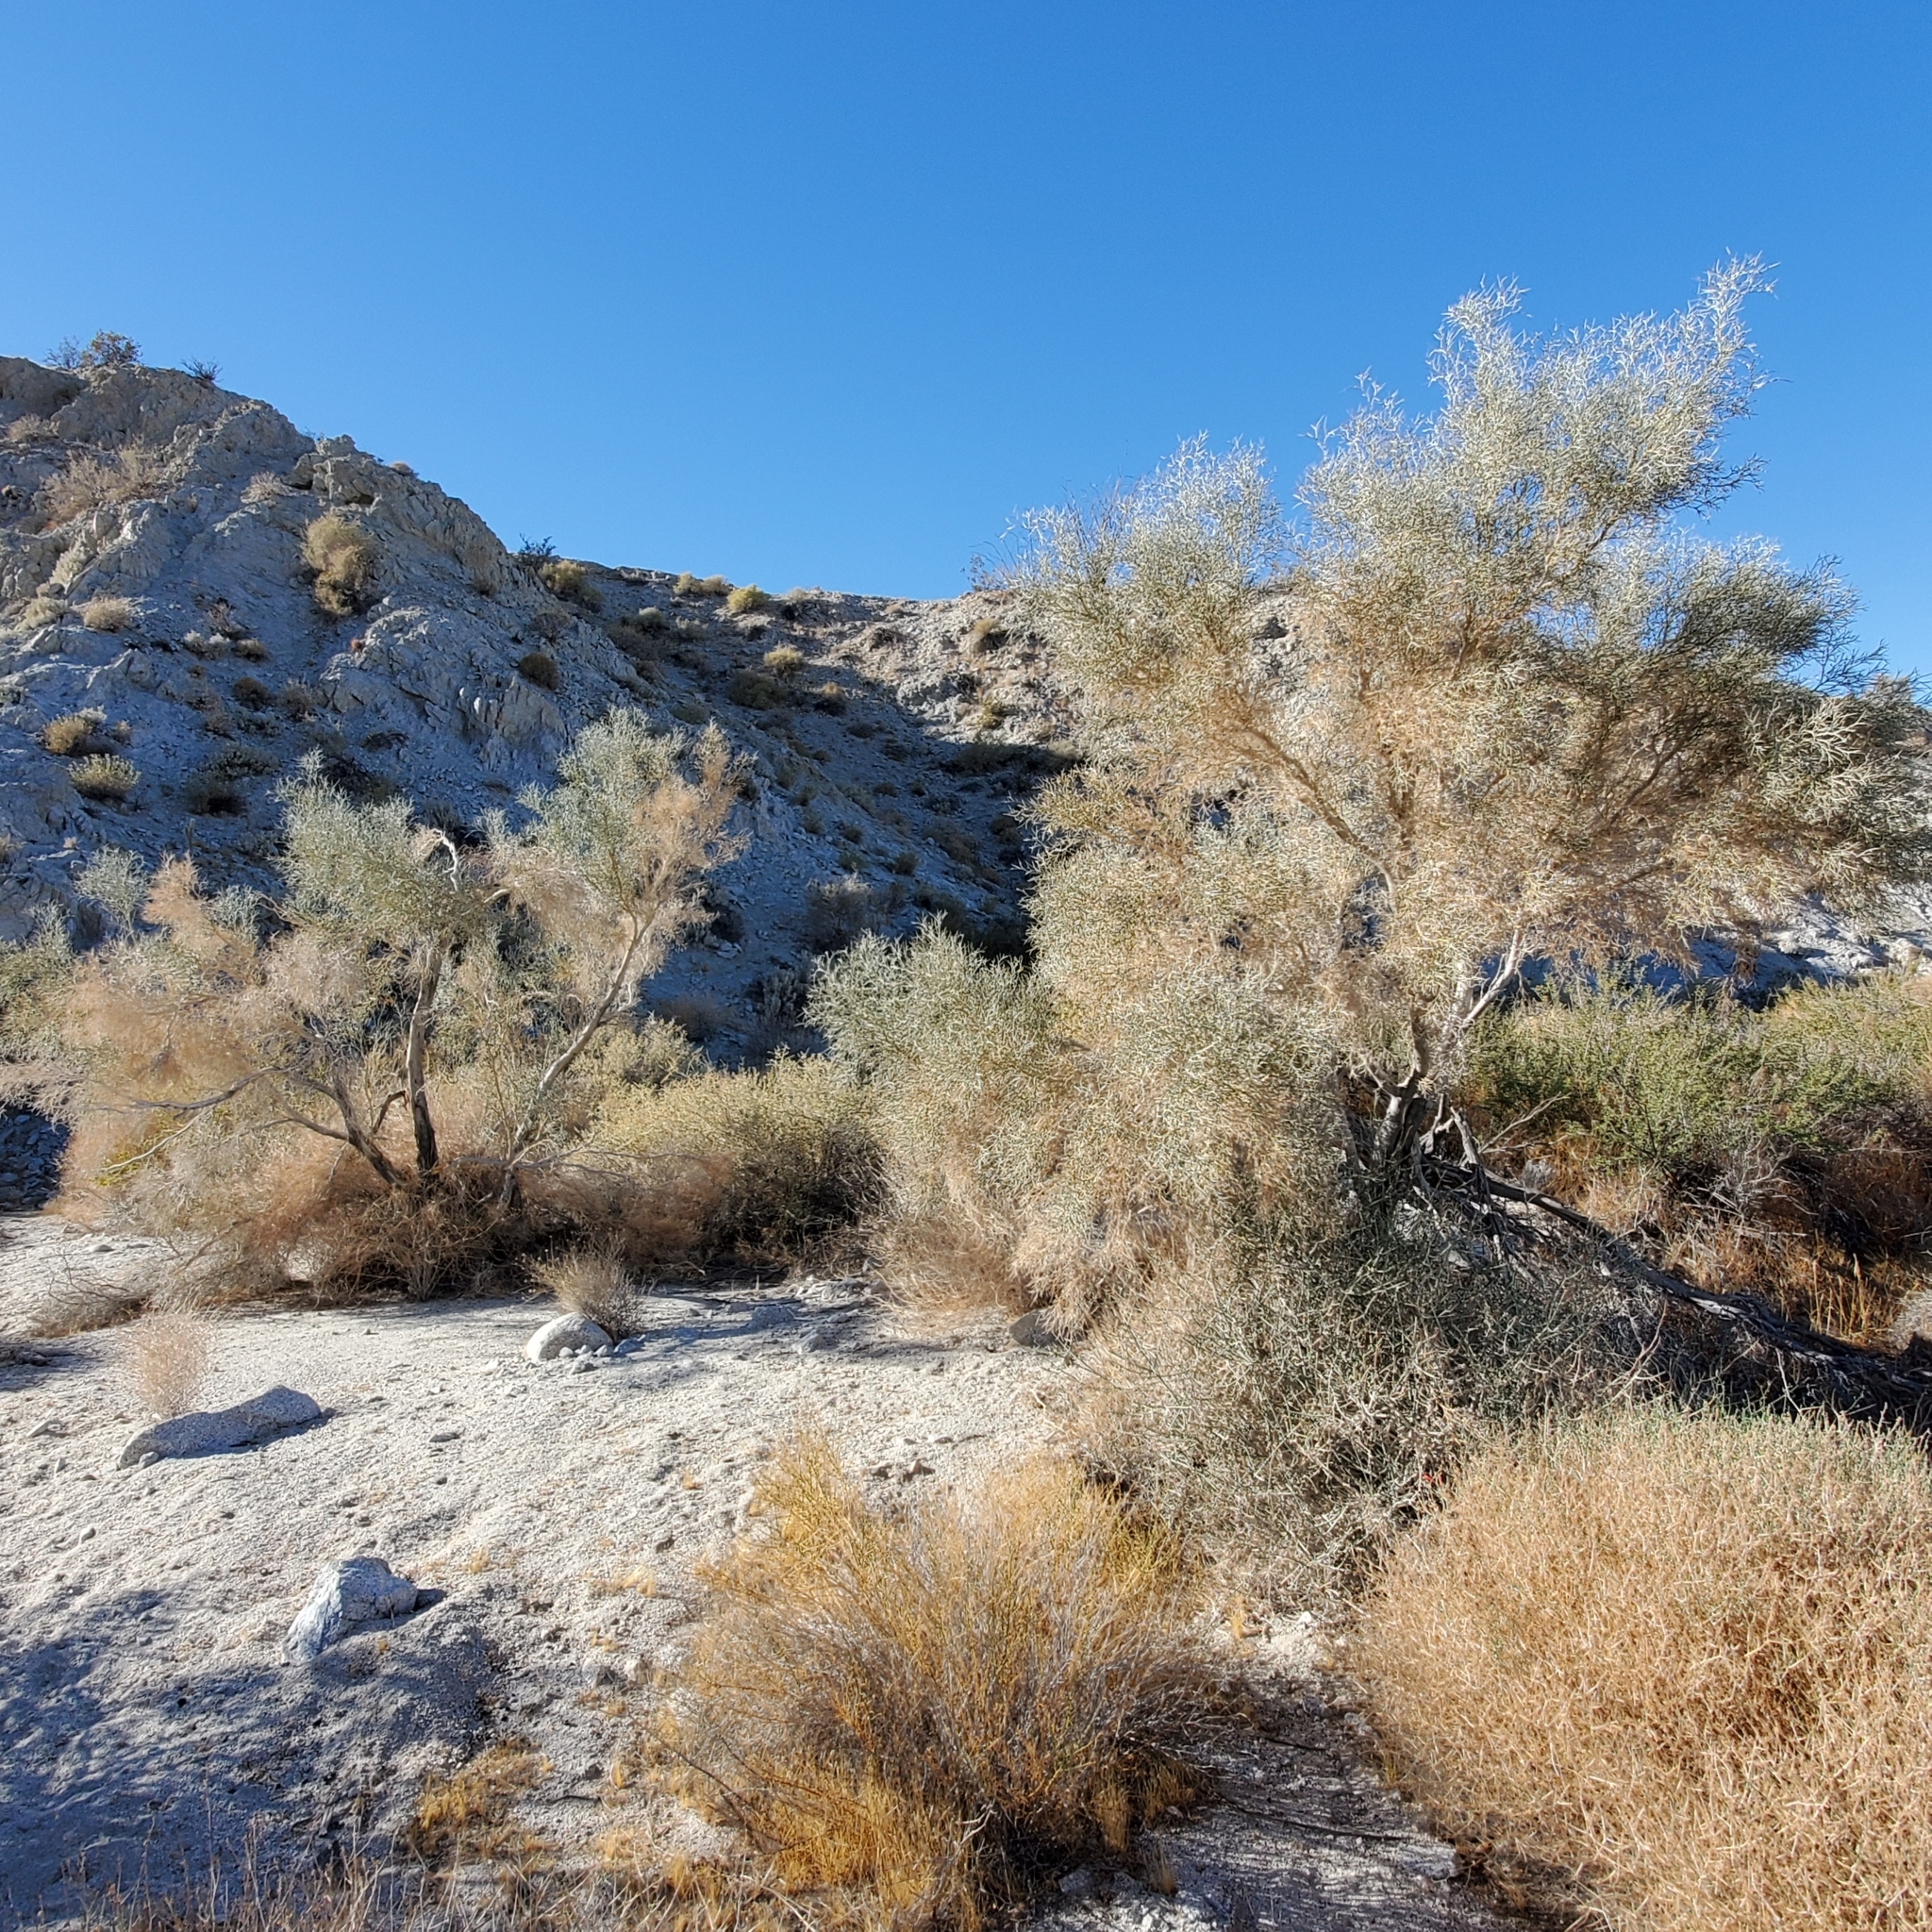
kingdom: Plantae
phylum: Tracheophyta
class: Magnoliopsida
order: Fabales
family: Fabaceae
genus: Psorothamnus
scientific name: Psorothamnus spinosus
